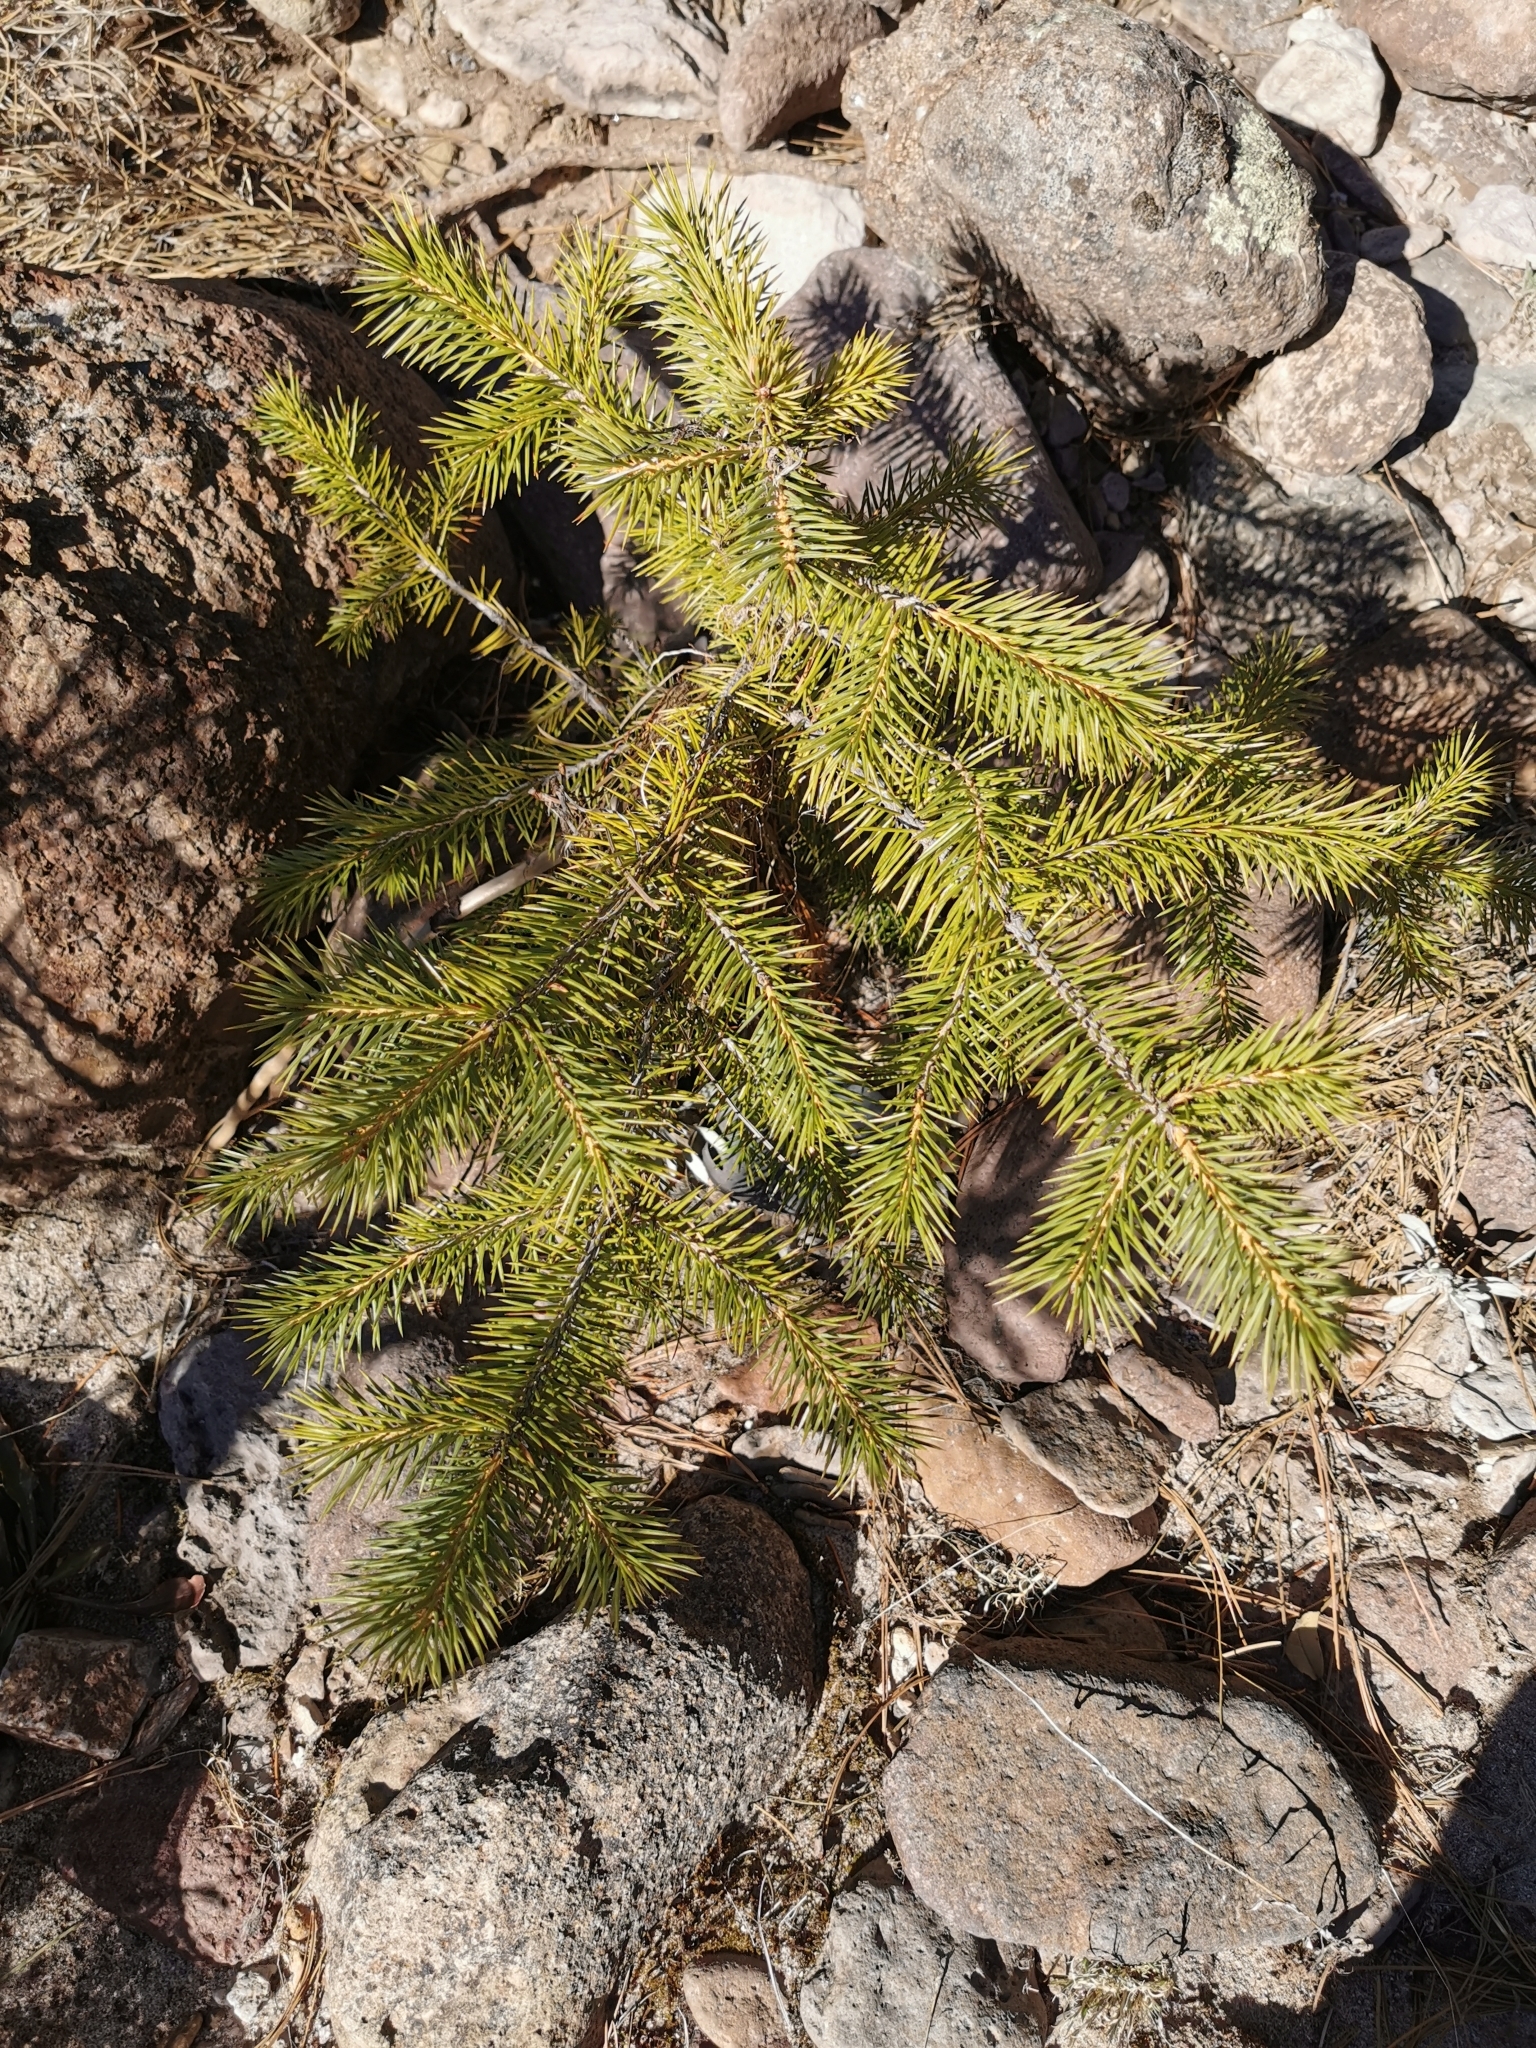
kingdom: Plantae
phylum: Tracheophyta
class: Pinopsida
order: Pinales
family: Pinaceae
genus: Picea
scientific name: Picea chihuahuana
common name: Chihuahua spruce
